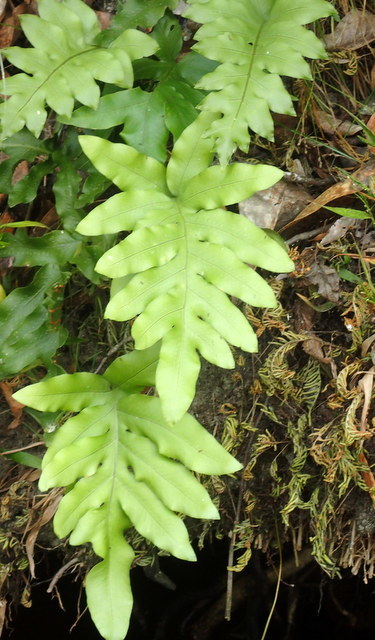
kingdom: Plantae
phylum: Tracheophyta
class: Polypodiopsida
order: Polypodiales
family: Polypodiaceae
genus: Phlebodium
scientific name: Phlebodium aureum
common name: Gold-foot fern
